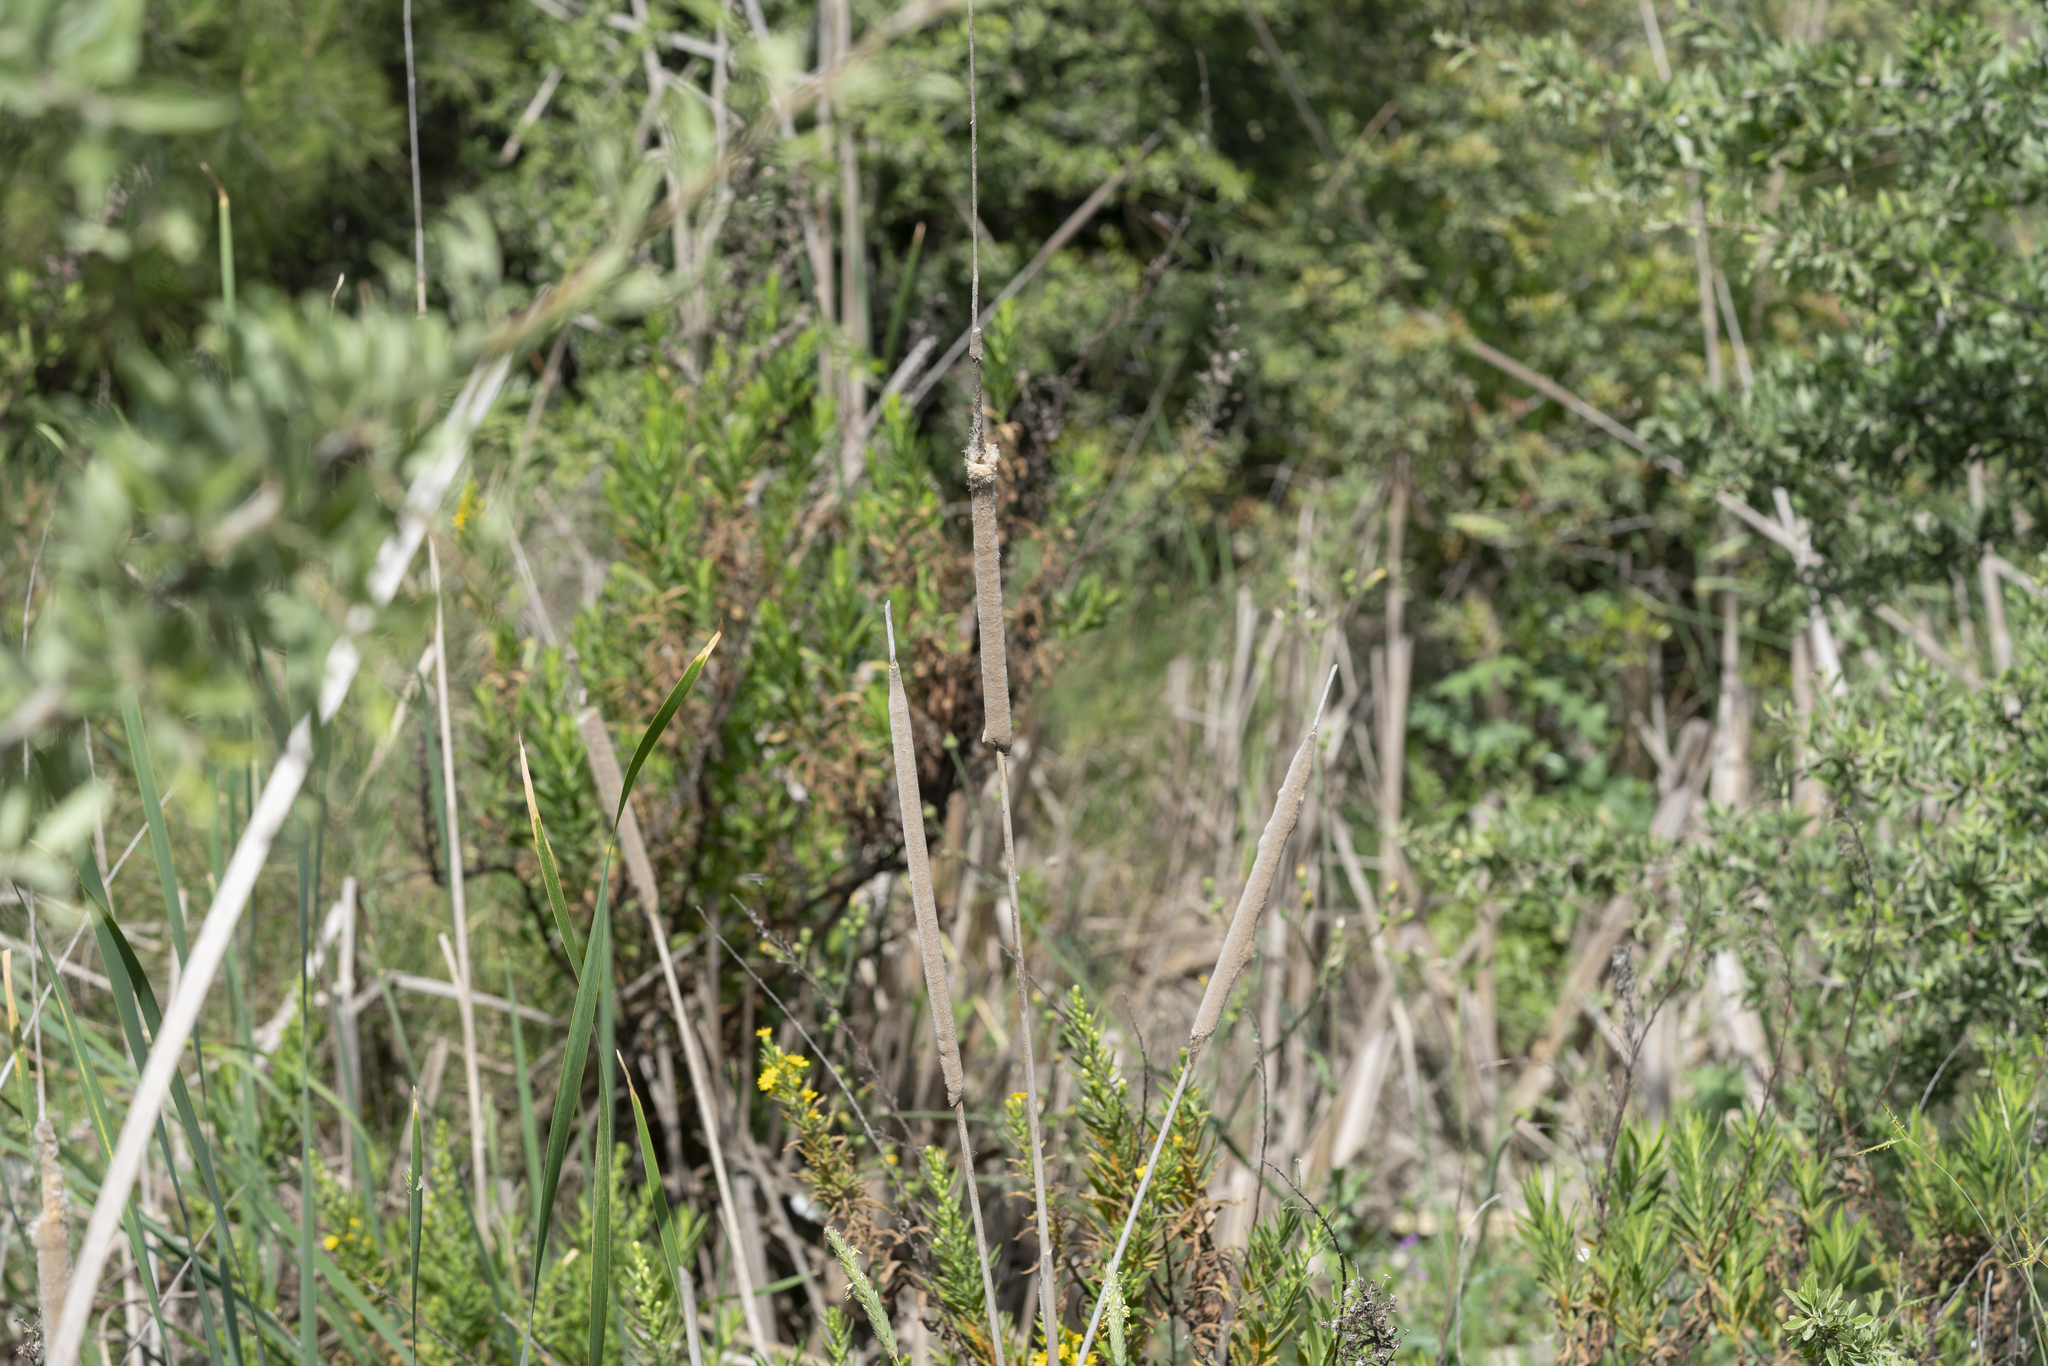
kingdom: Plantae
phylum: Tracheophyta
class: Liliopsida
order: Poales
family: Typhaceae
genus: Typha
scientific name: Typha domingensis
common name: Southern cattail
